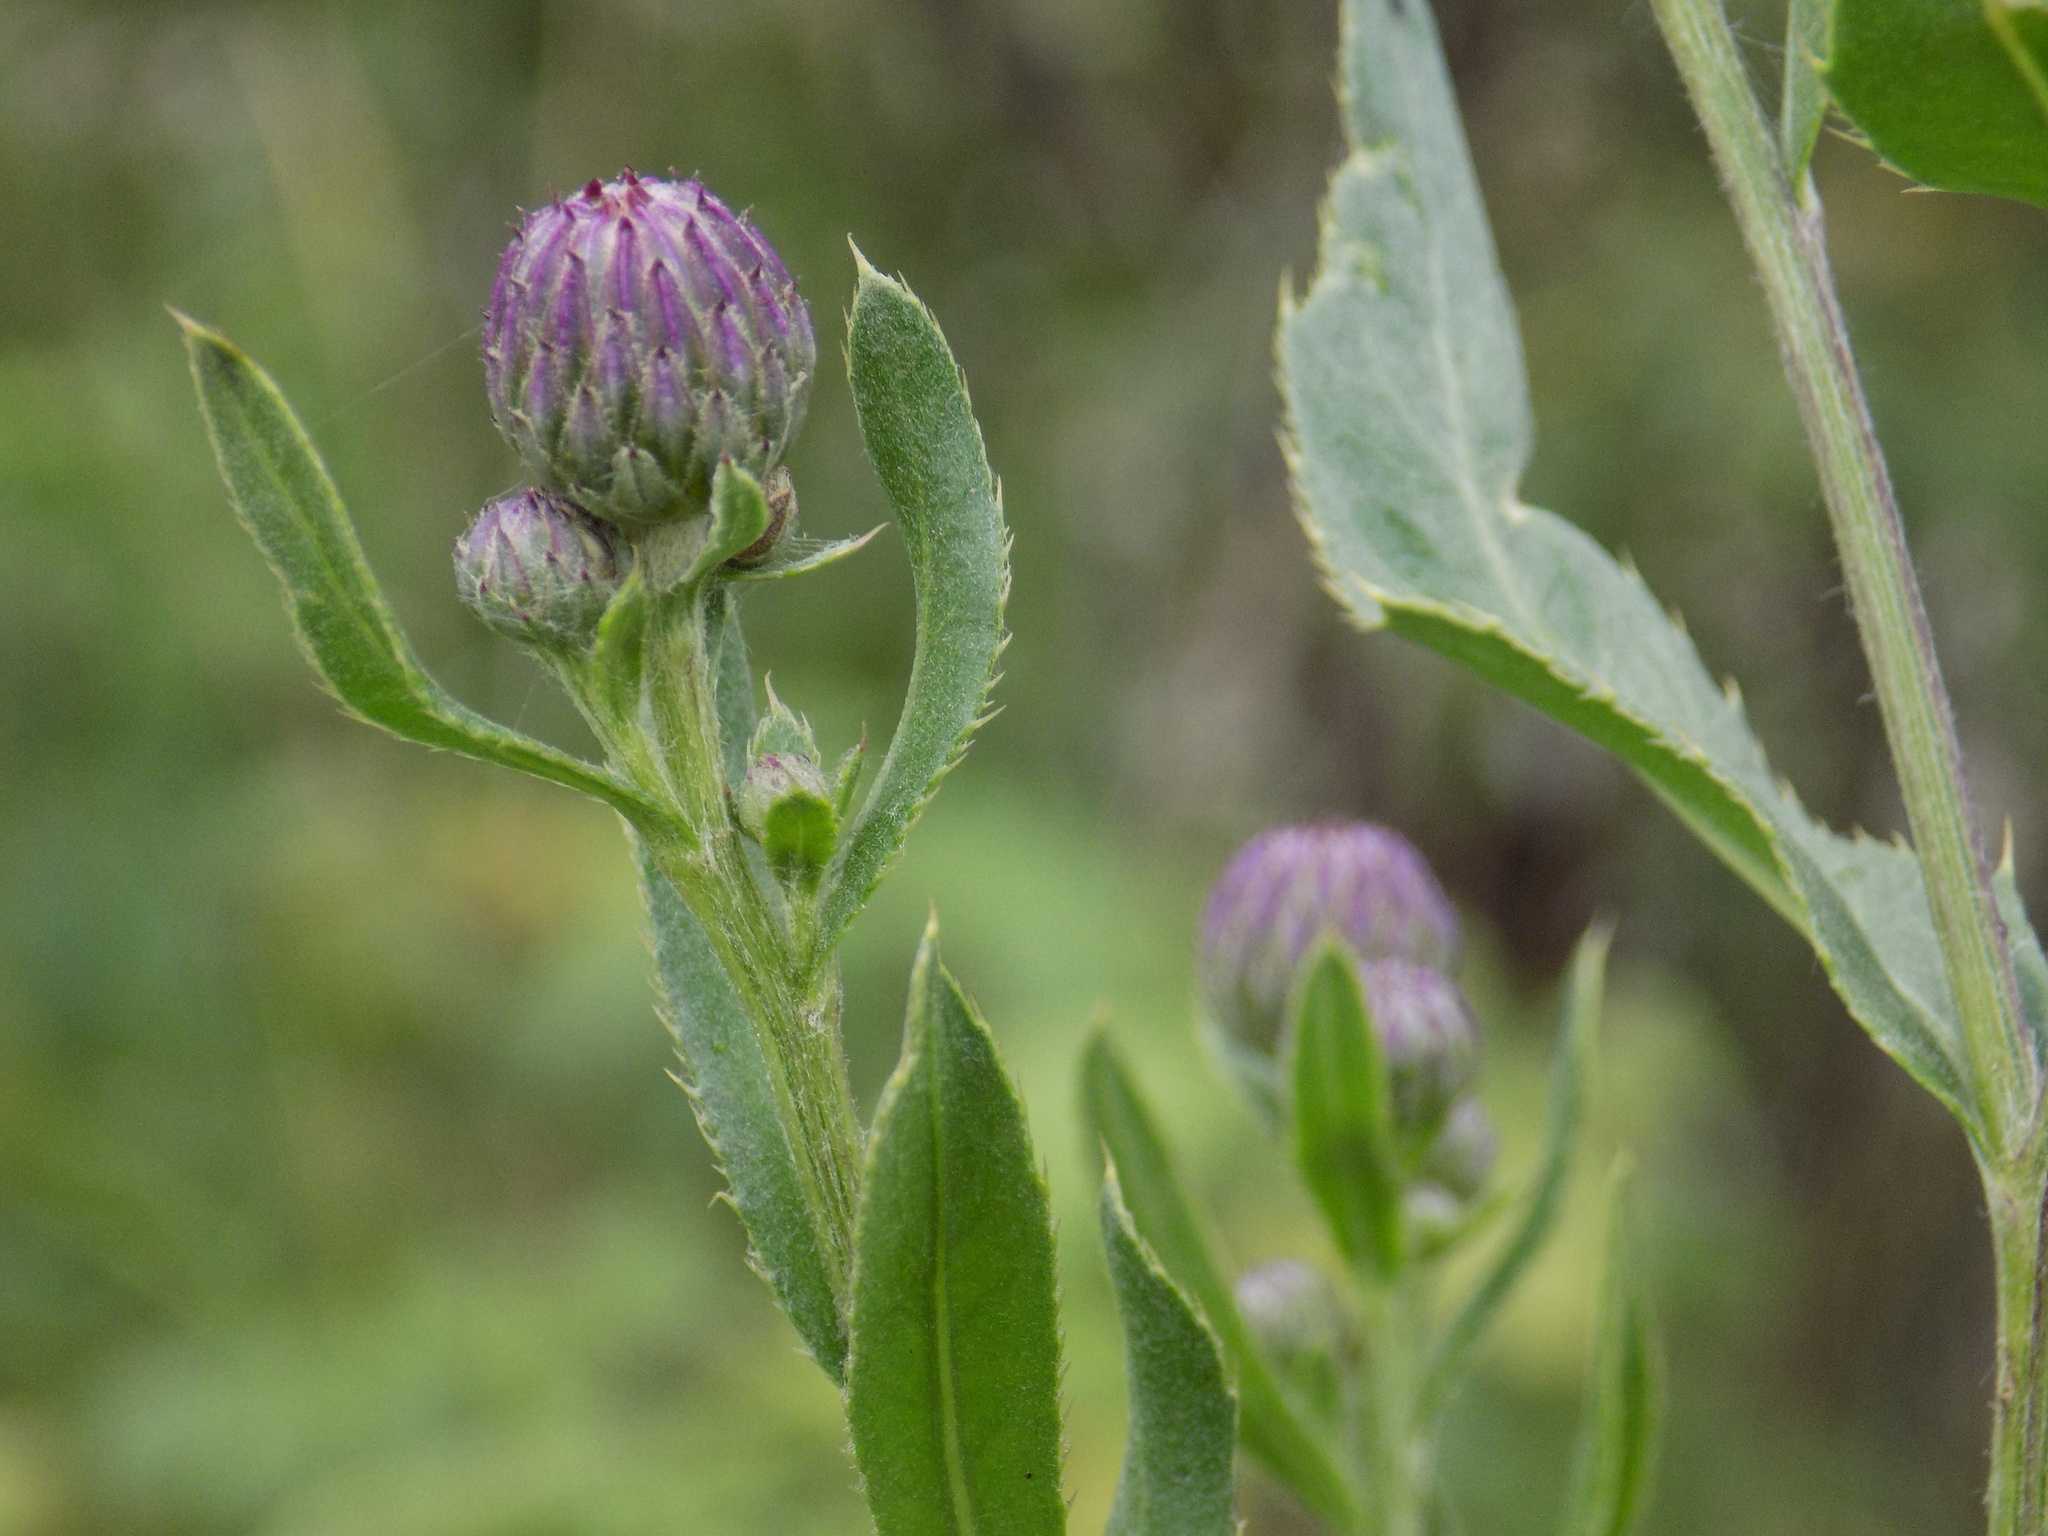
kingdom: Plantae
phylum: Tracheophyta
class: Magnoliopsida
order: Asterales
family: Asteraceae
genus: Cirsium
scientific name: Cirsium arvense
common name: Creeping thistle
